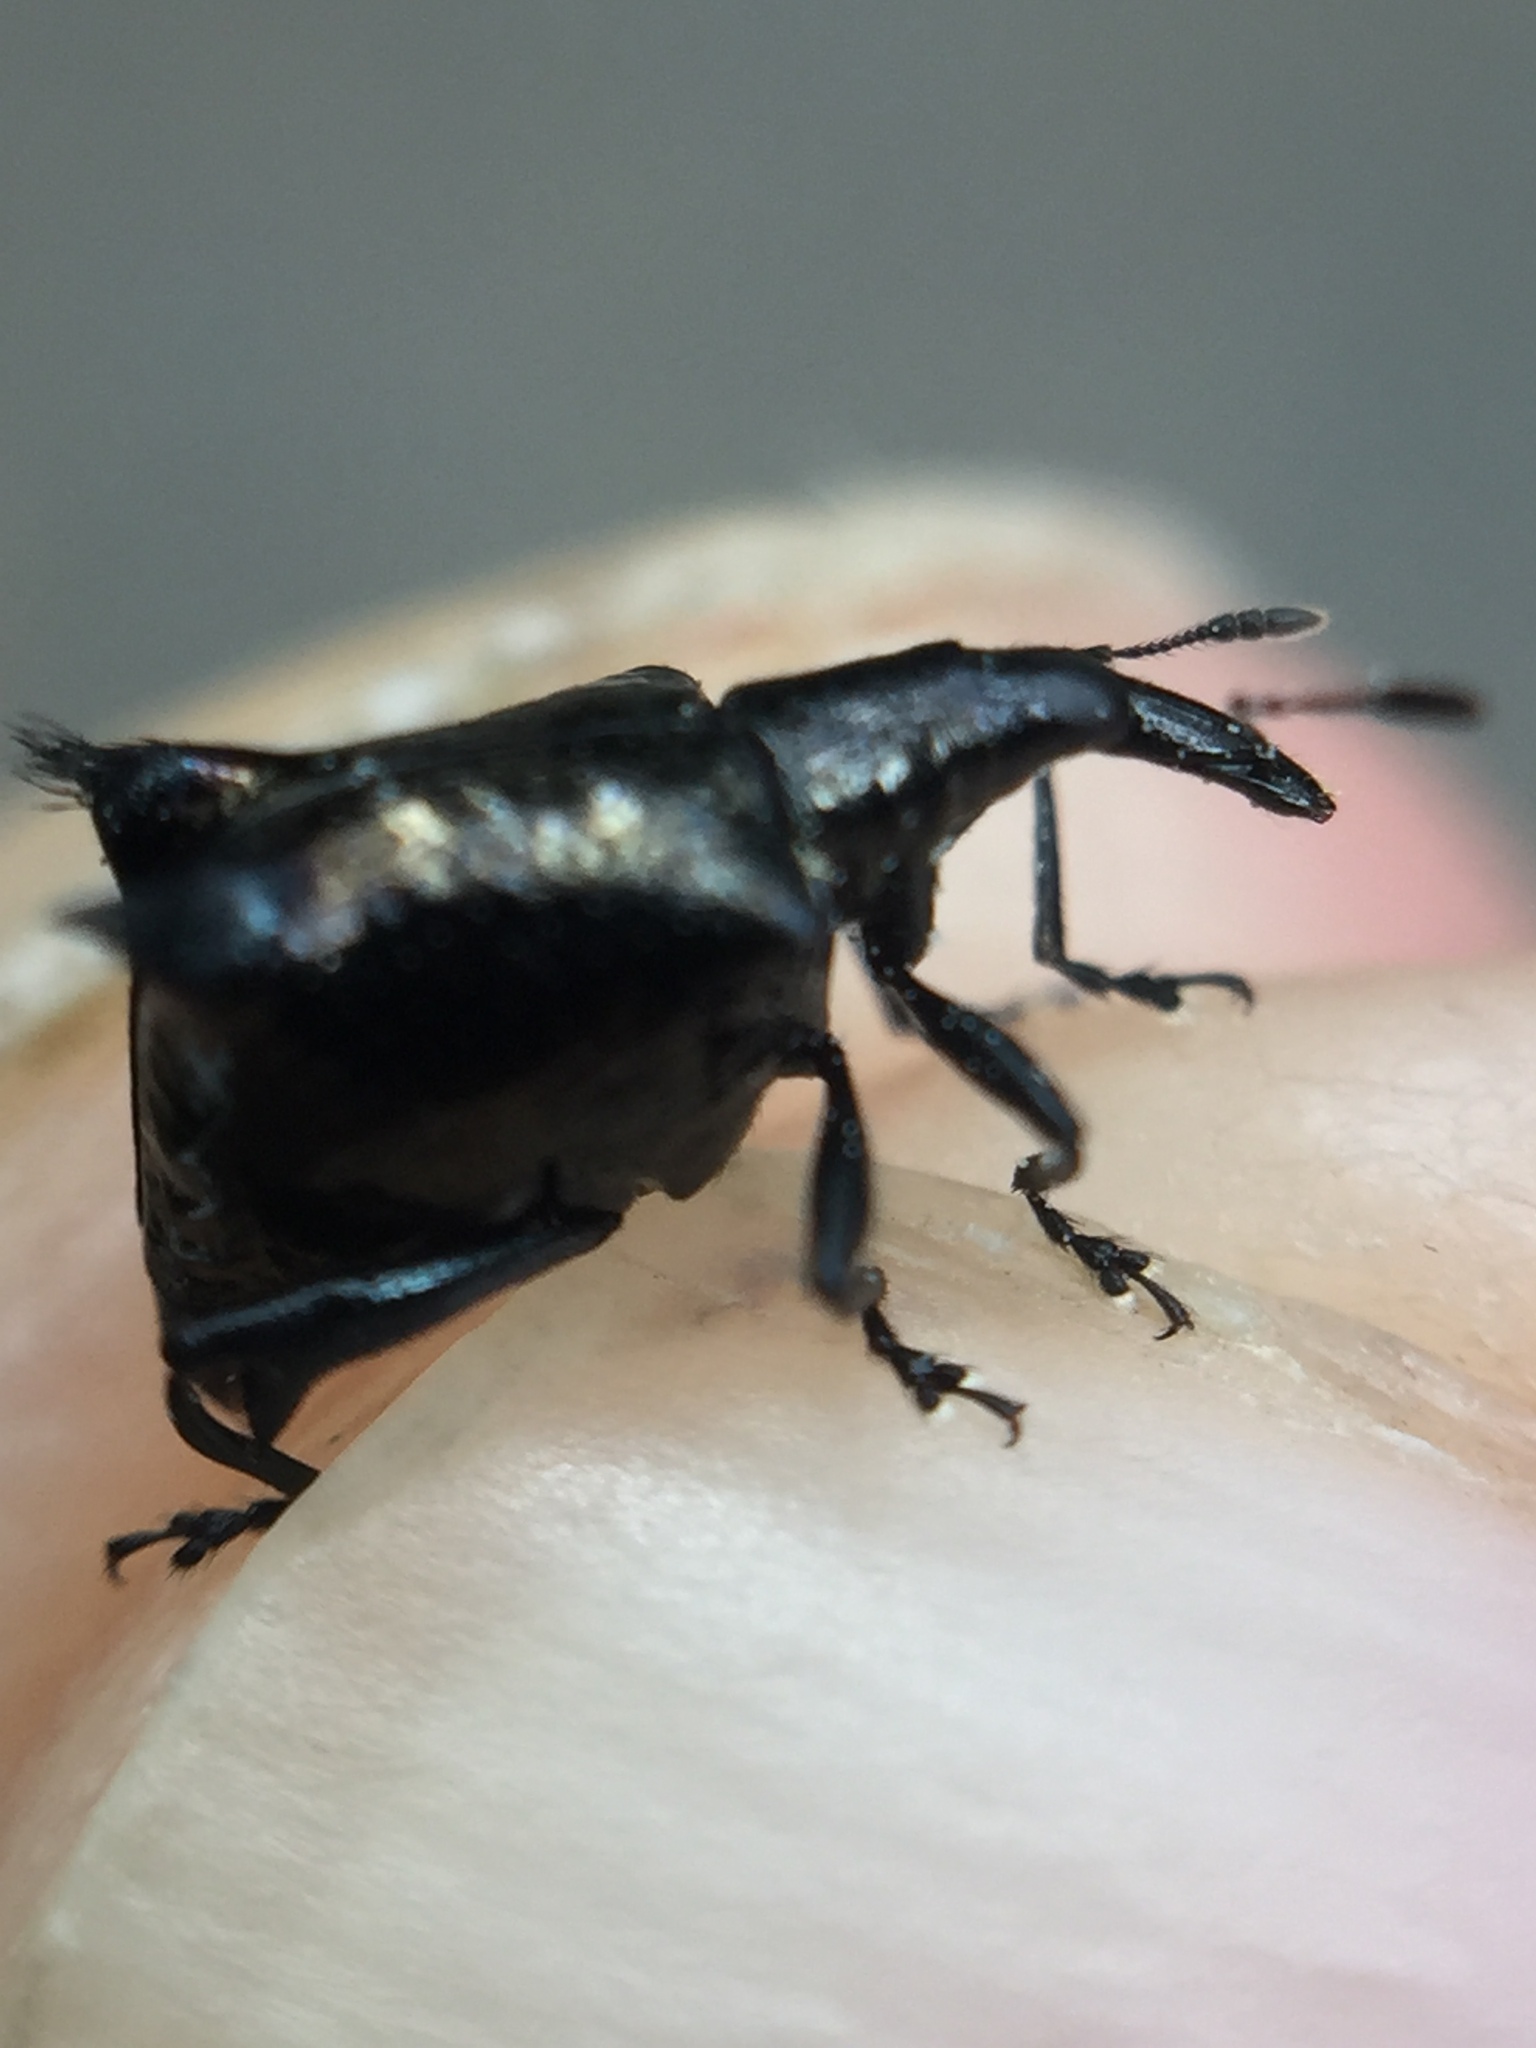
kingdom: Animalia
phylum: Arthropoda
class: Insecta
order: Coleoptera
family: Curculionidae
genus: Scolopterus
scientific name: Scolopterus penicillatus
